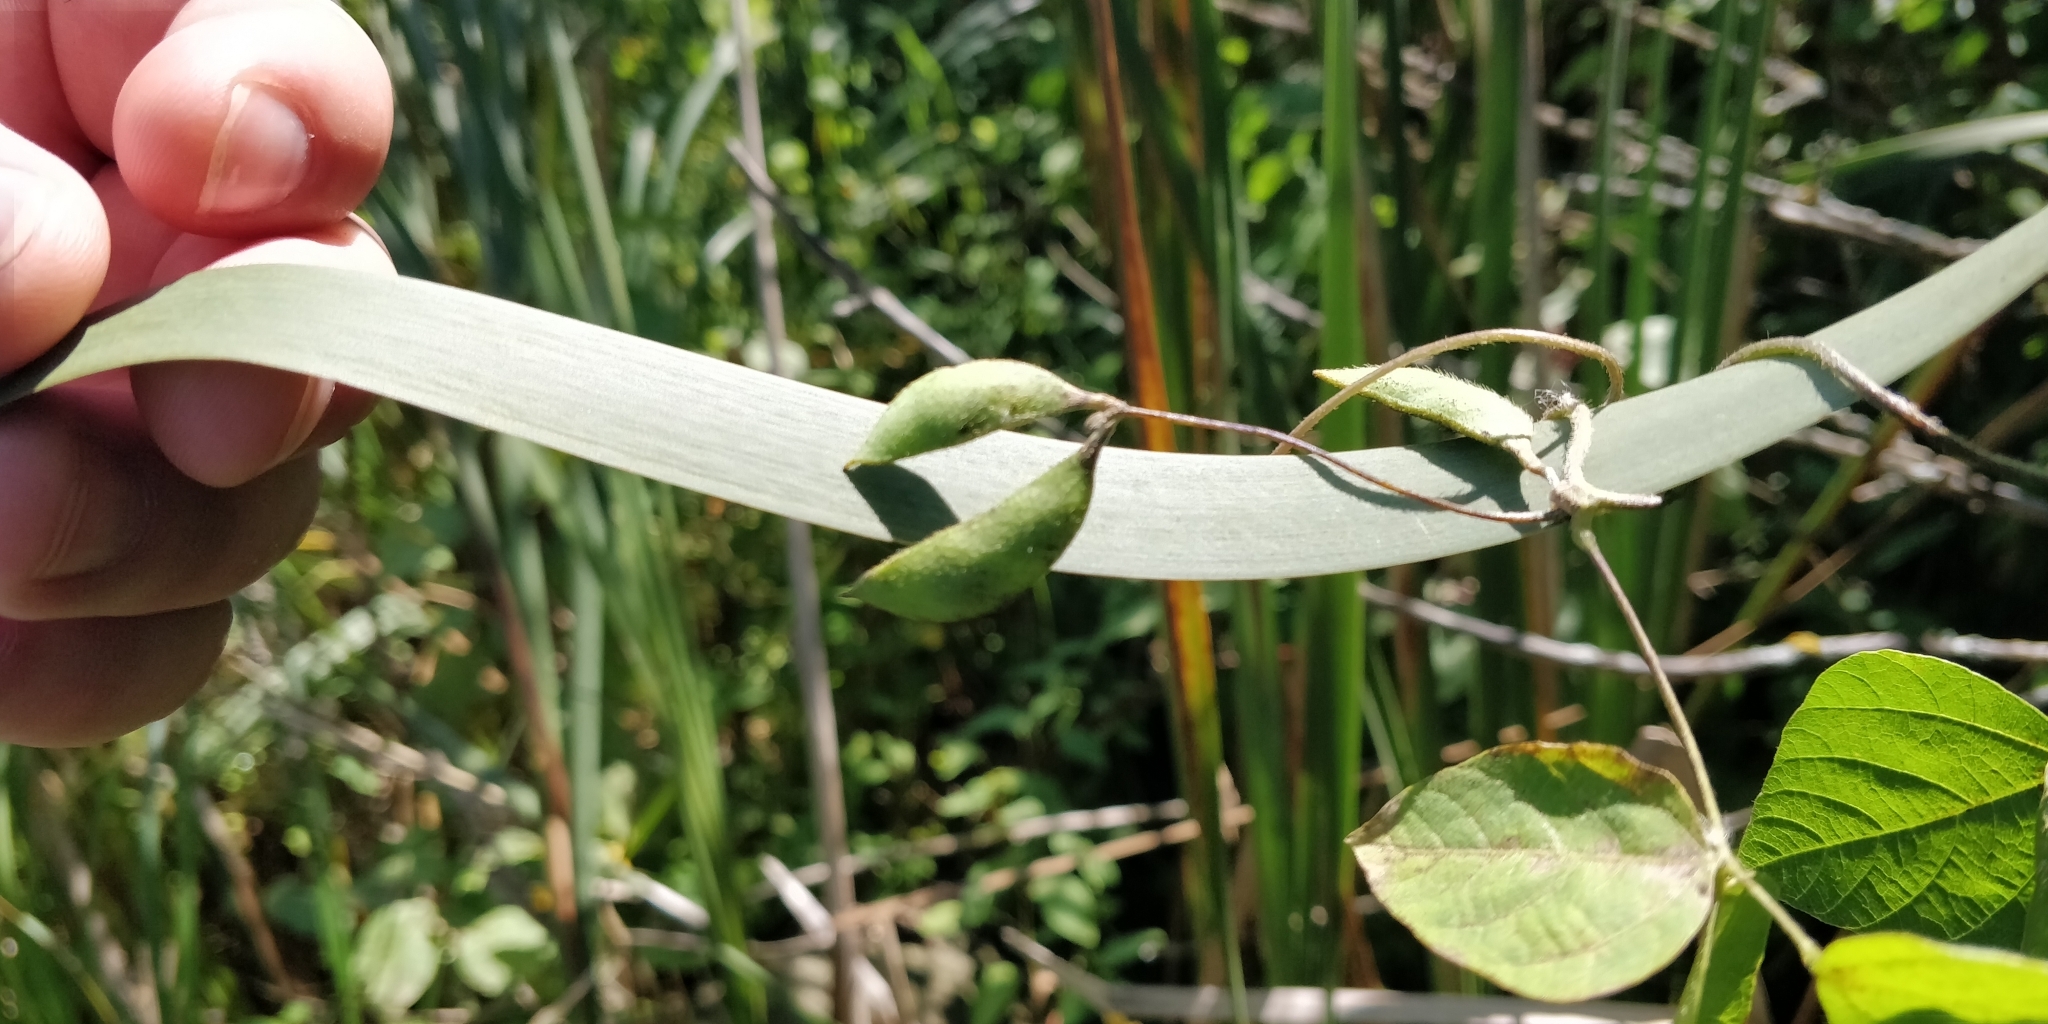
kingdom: Plantae
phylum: Tracheophyta
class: Magnoliopsida
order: Fabales
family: Fabaceae
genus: Amphicarpaea
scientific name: Amphicarpaea bracteata
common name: American hog peanut
